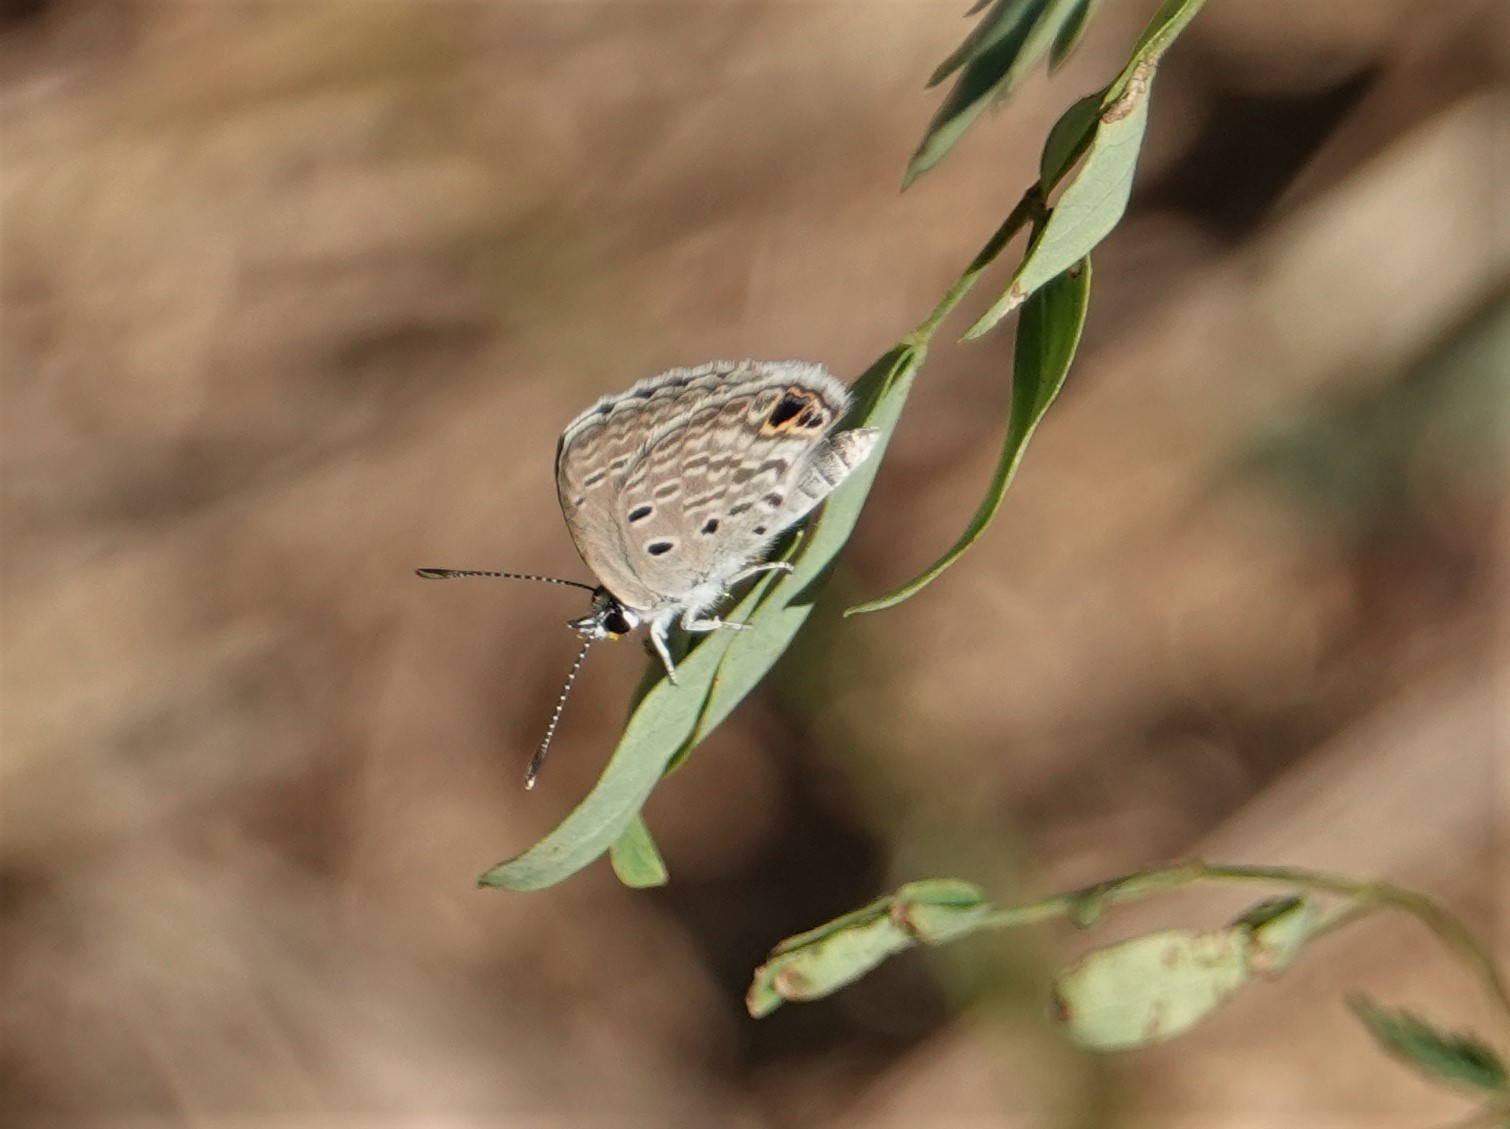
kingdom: Animalia
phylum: Arthropoda
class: Insecta
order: Lepidoptera
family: Lycaenidae
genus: Hemiargus
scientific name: Hemiargus ceraunus
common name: Ceraunus blue
